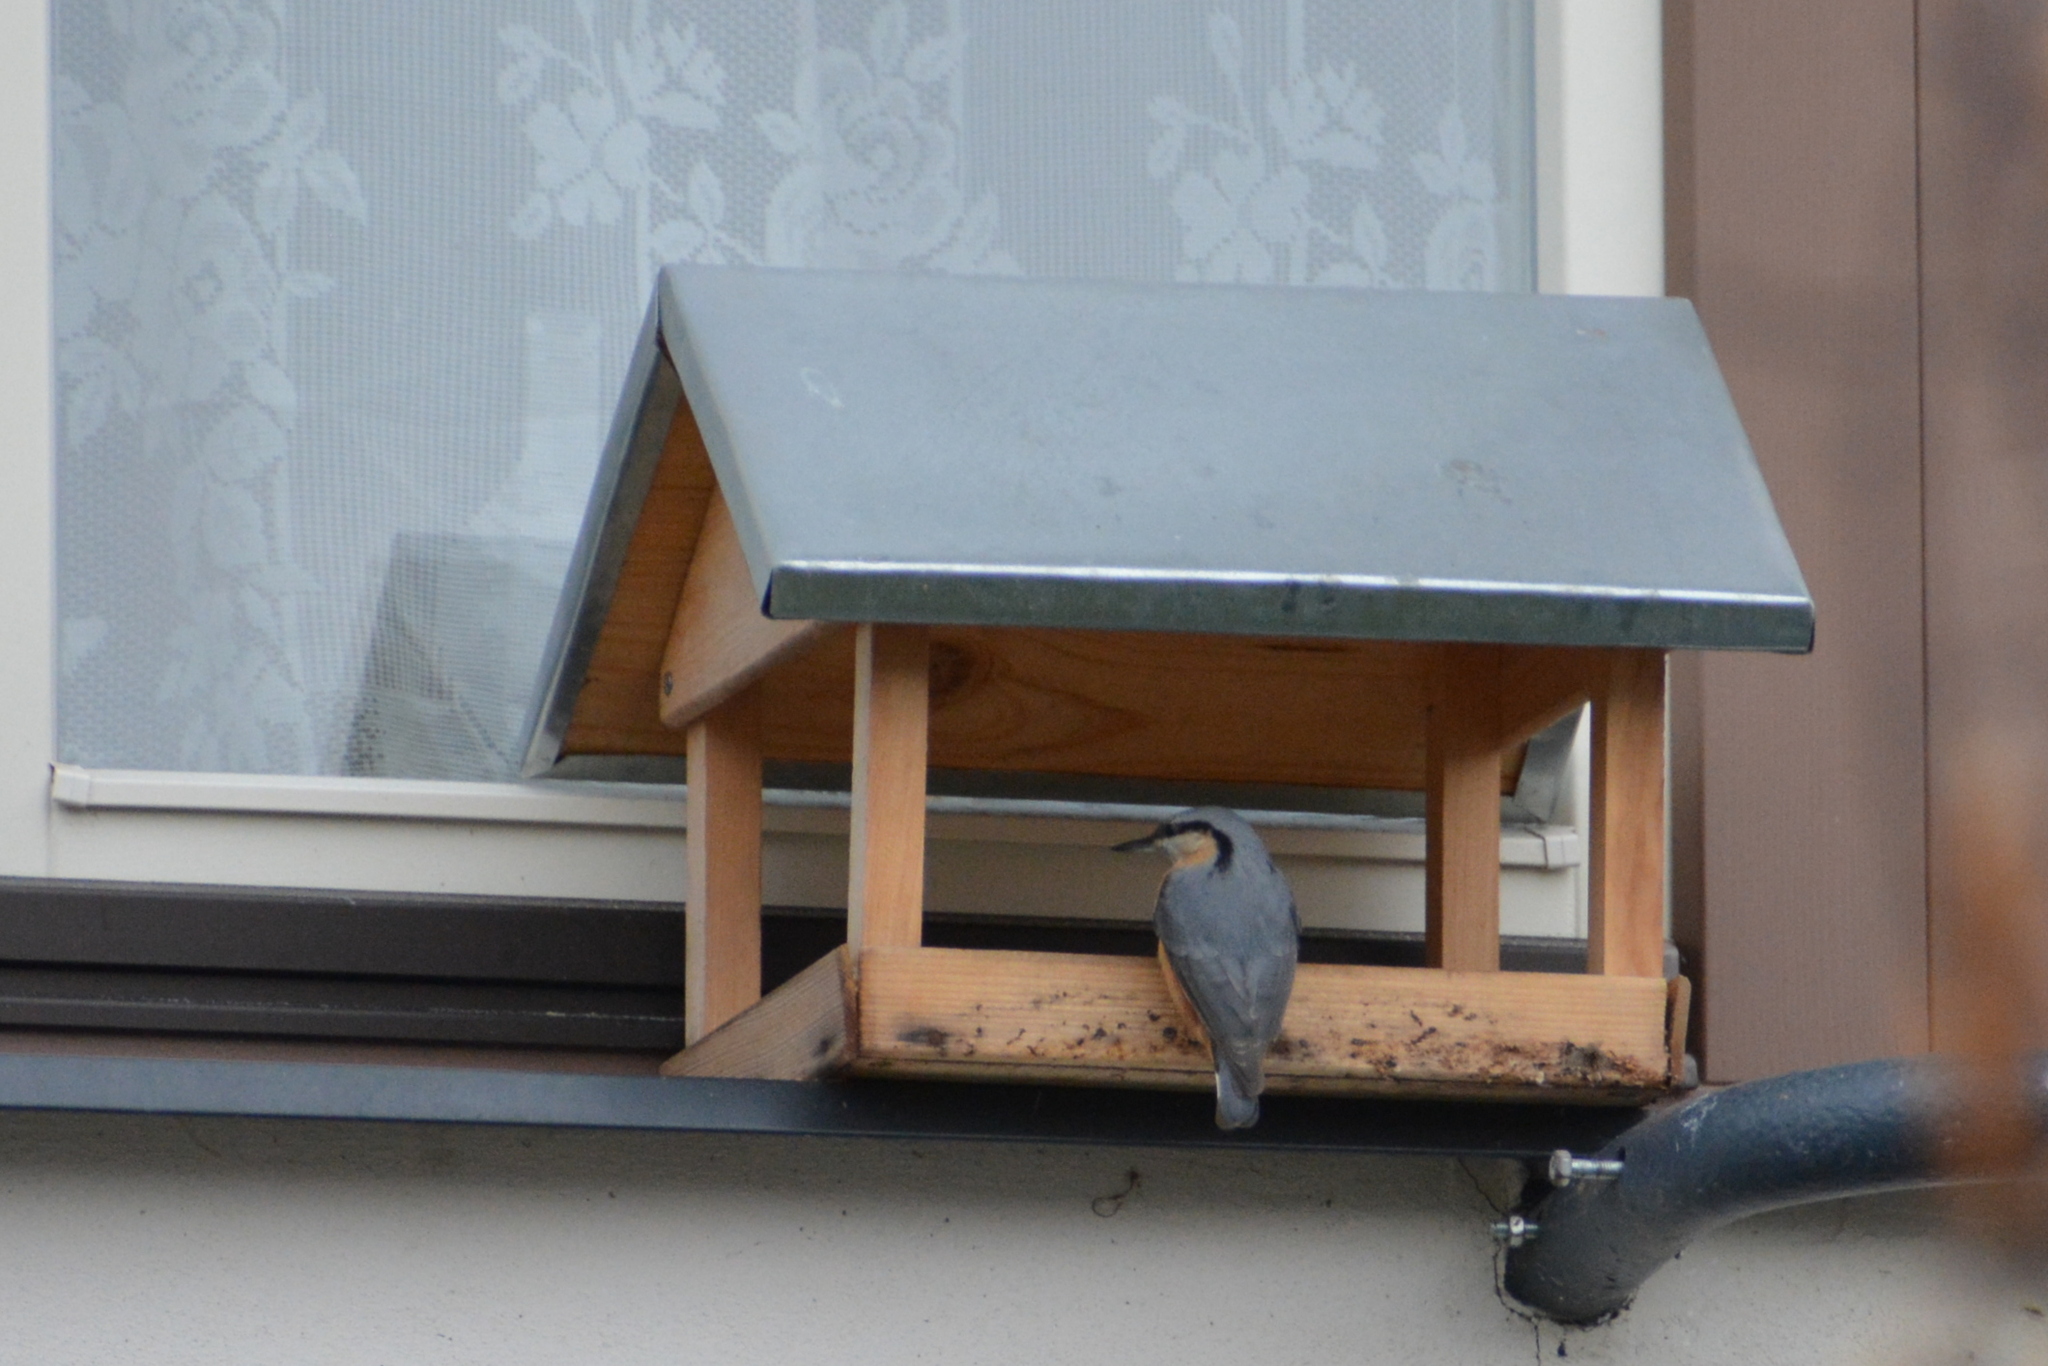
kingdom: Animalia
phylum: Chordata
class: Aves
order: Passeriformes
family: Sittidae
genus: Sitta
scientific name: Sitta europaea
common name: Eurasian nuthatch
